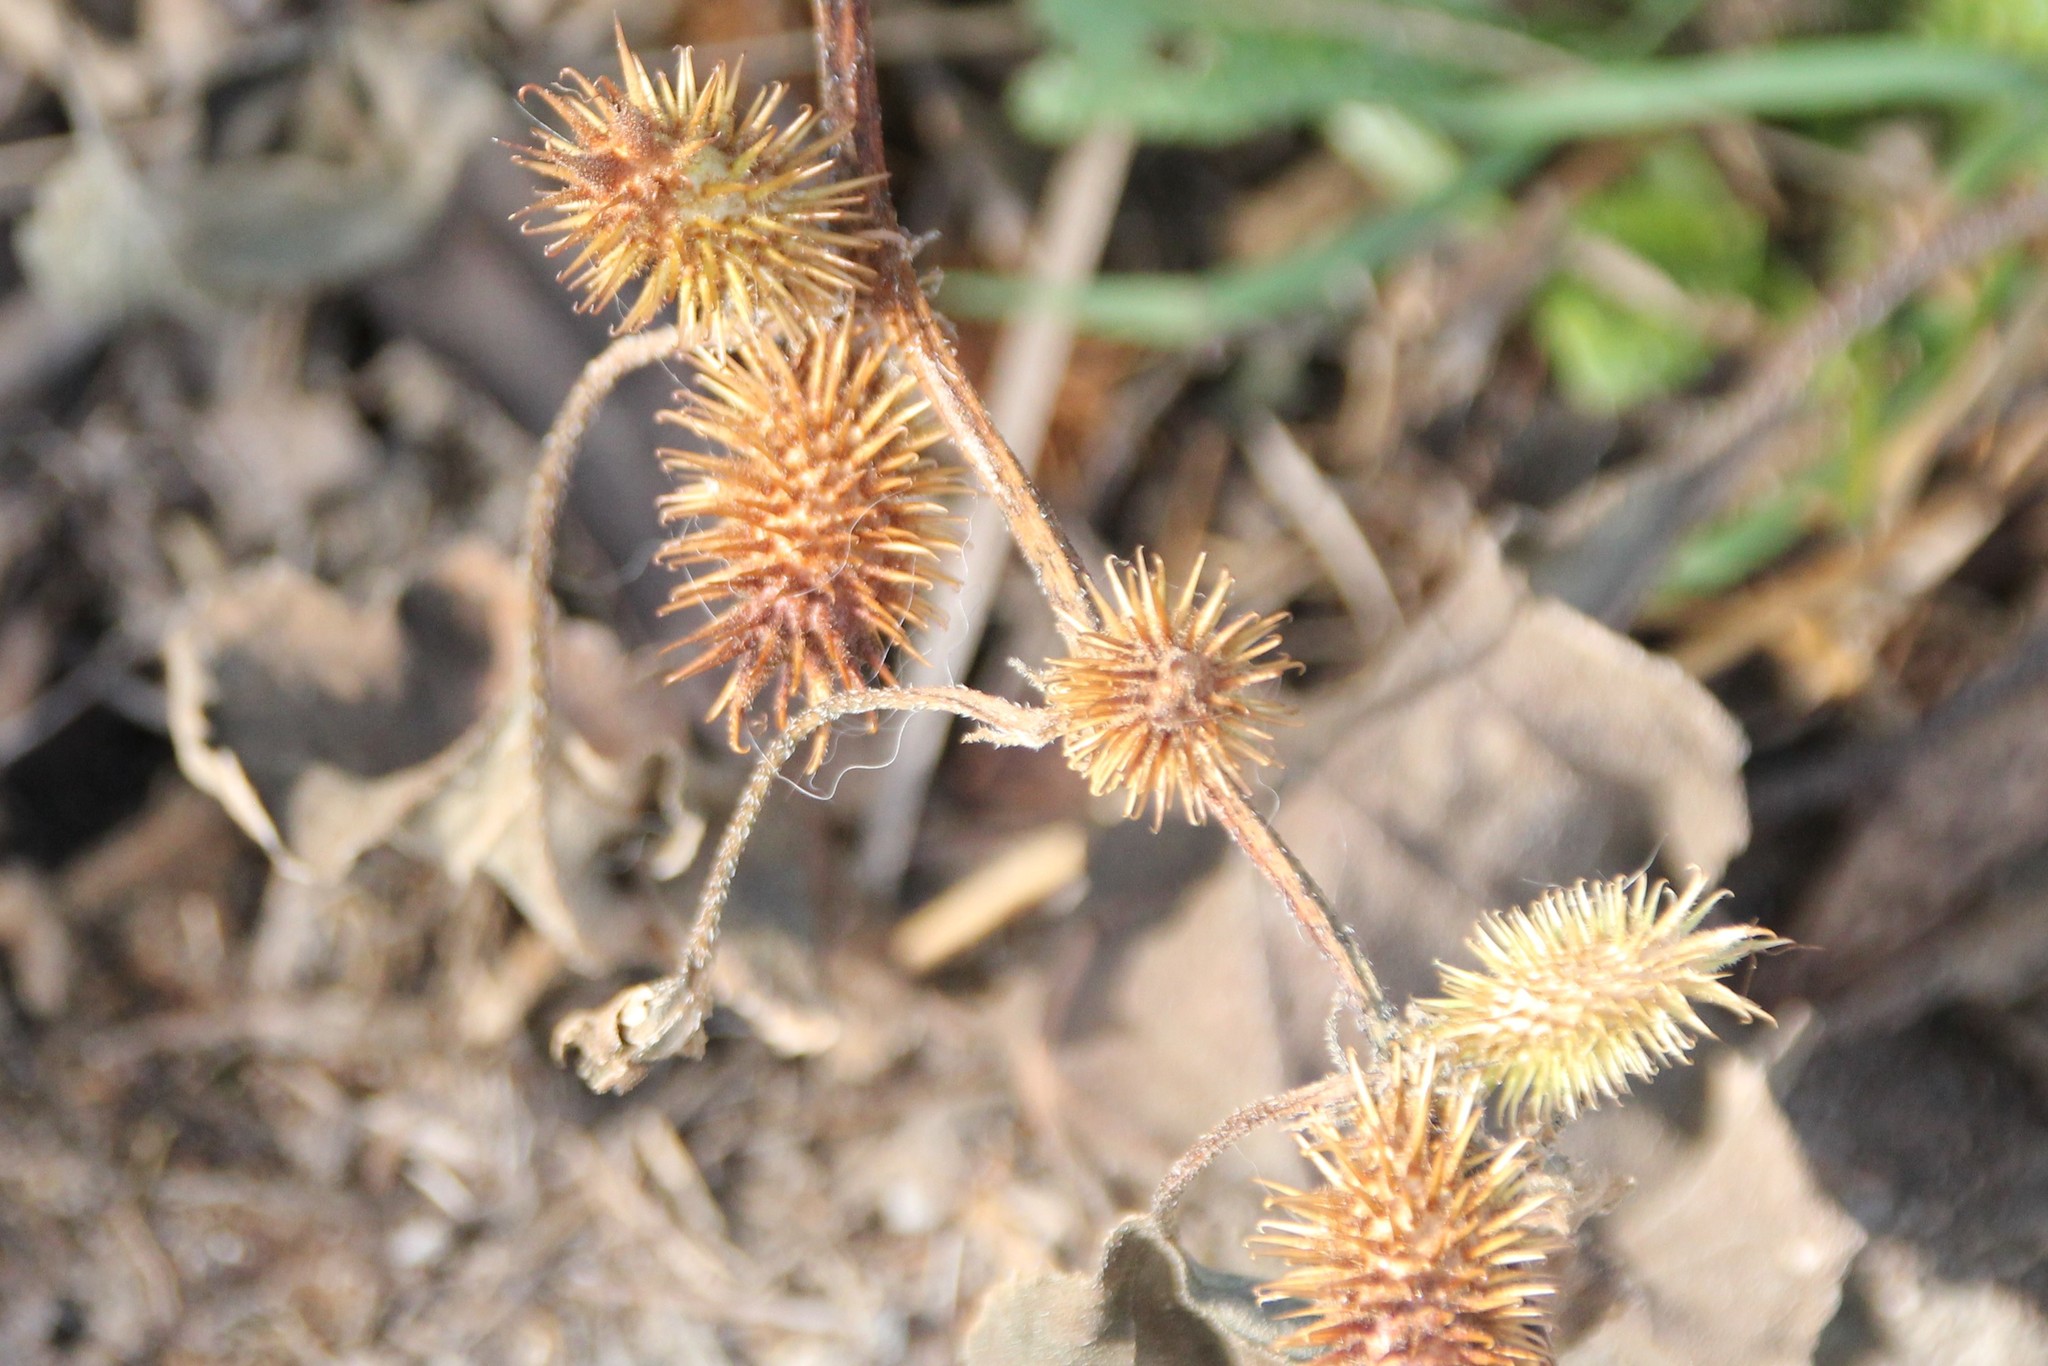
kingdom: Plantae
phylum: Tracheophyta
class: Magnoliopsida
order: Asterales
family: Asteraceae
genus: Xanthium
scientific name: Xanthium strumarium
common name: Rough cocklebur
